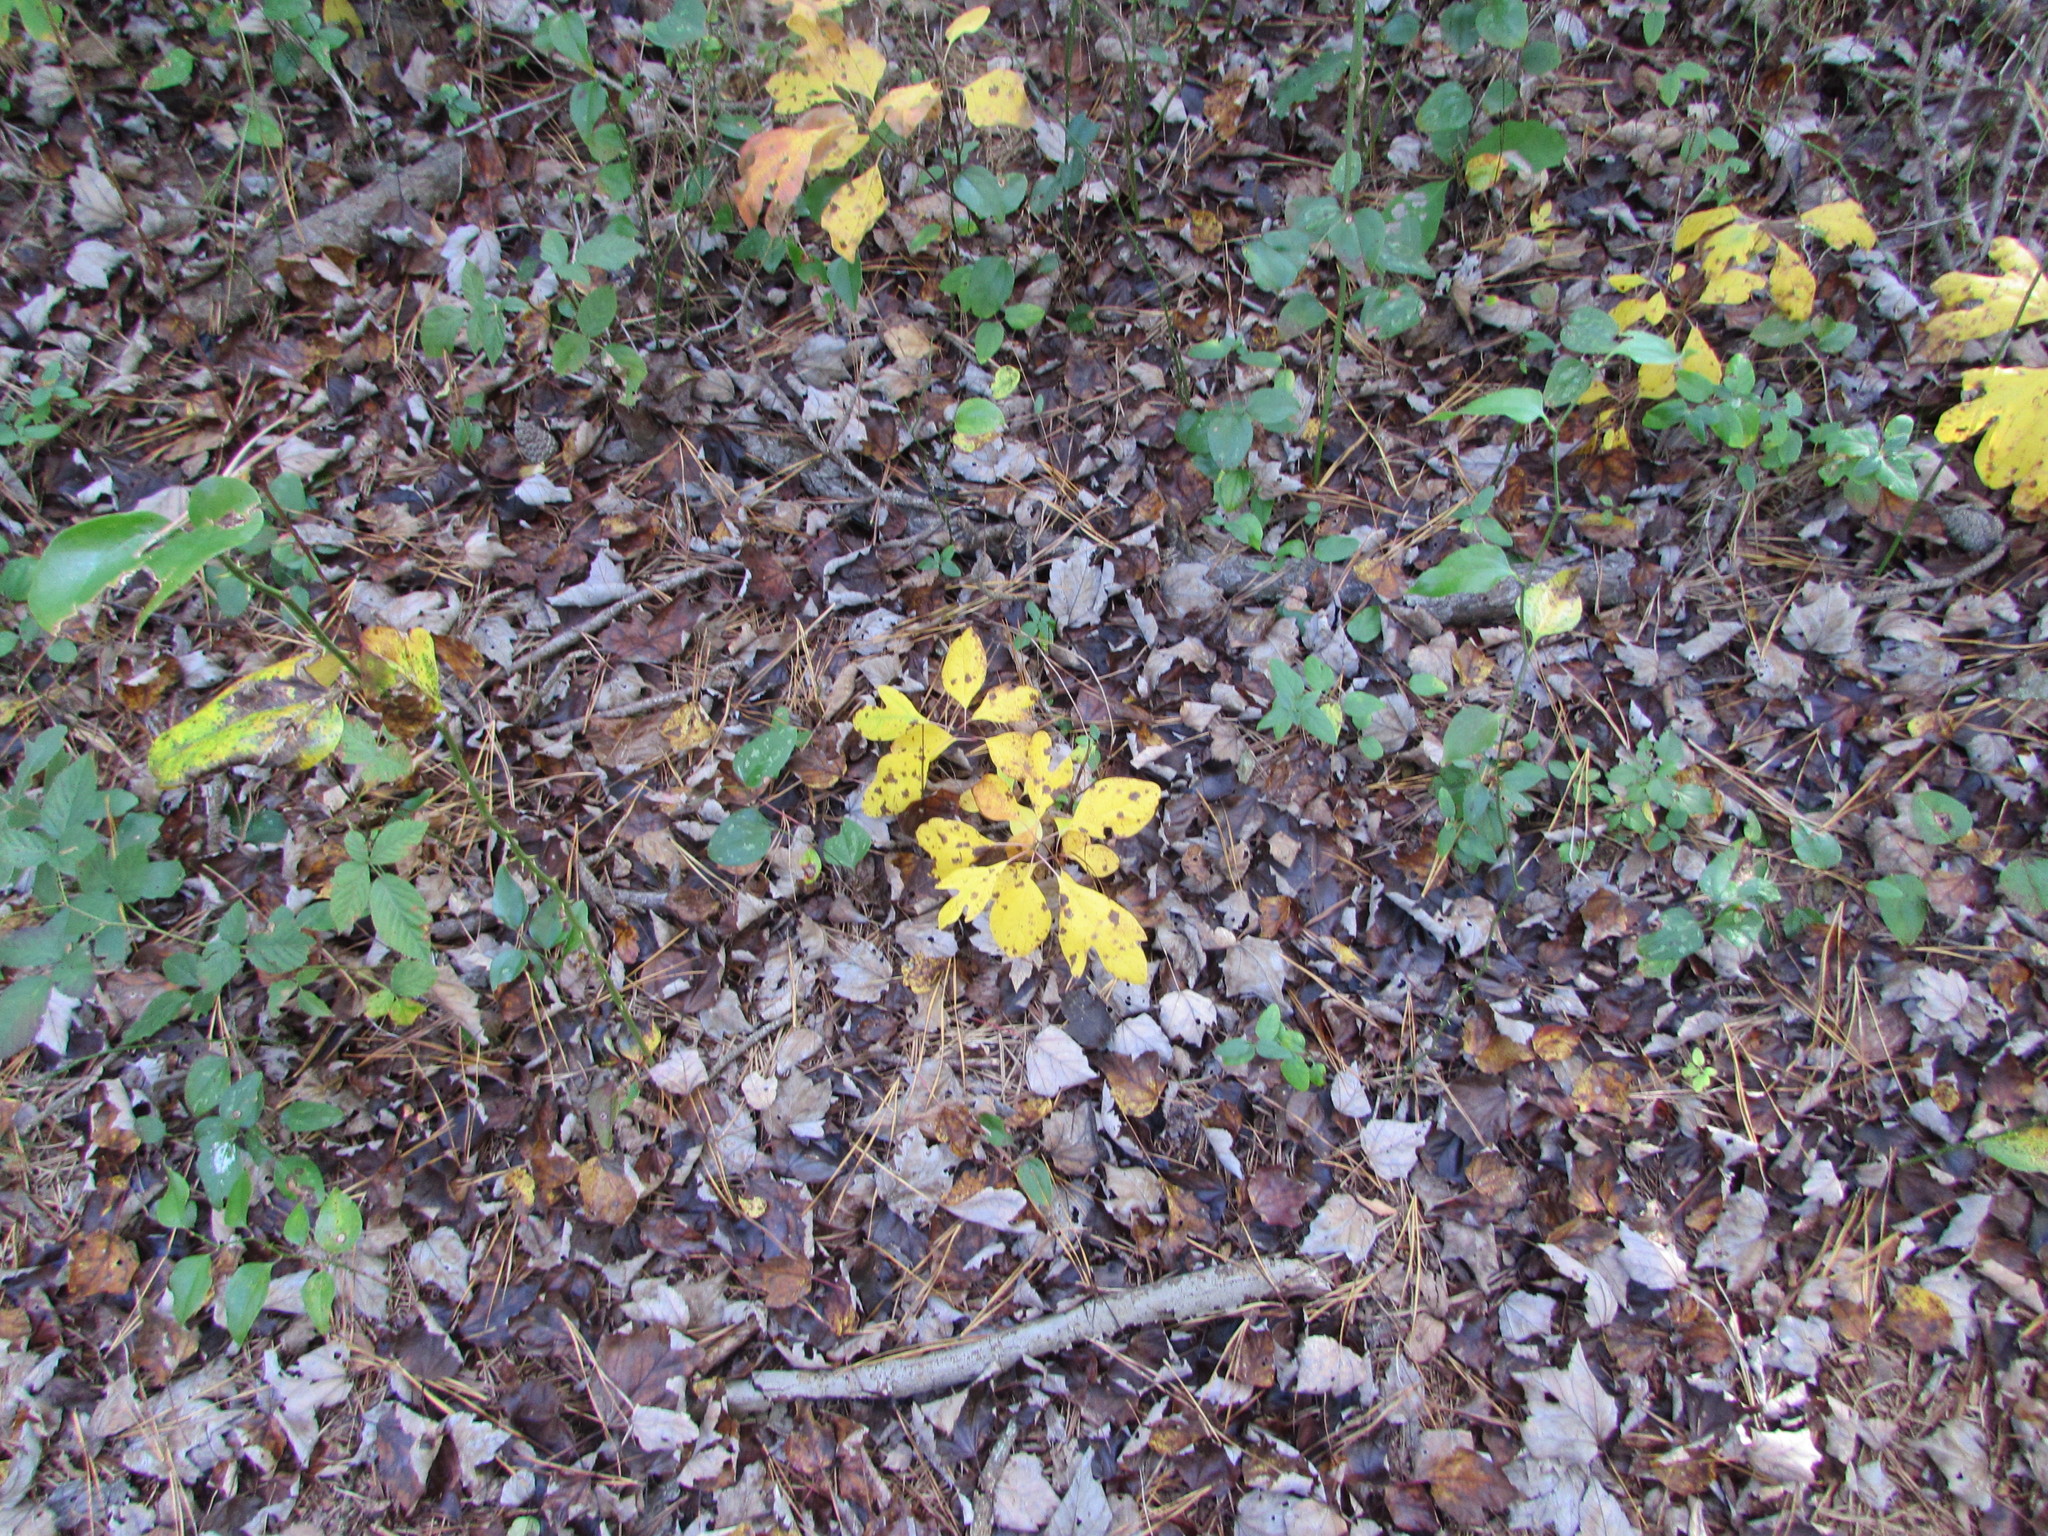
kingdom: Plantae
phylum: Tracheophyta
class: Magnoliopsida
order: Laurales
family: Lauraceae
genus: Sassafras
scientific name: Sassafras albidum
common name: Sassafras
